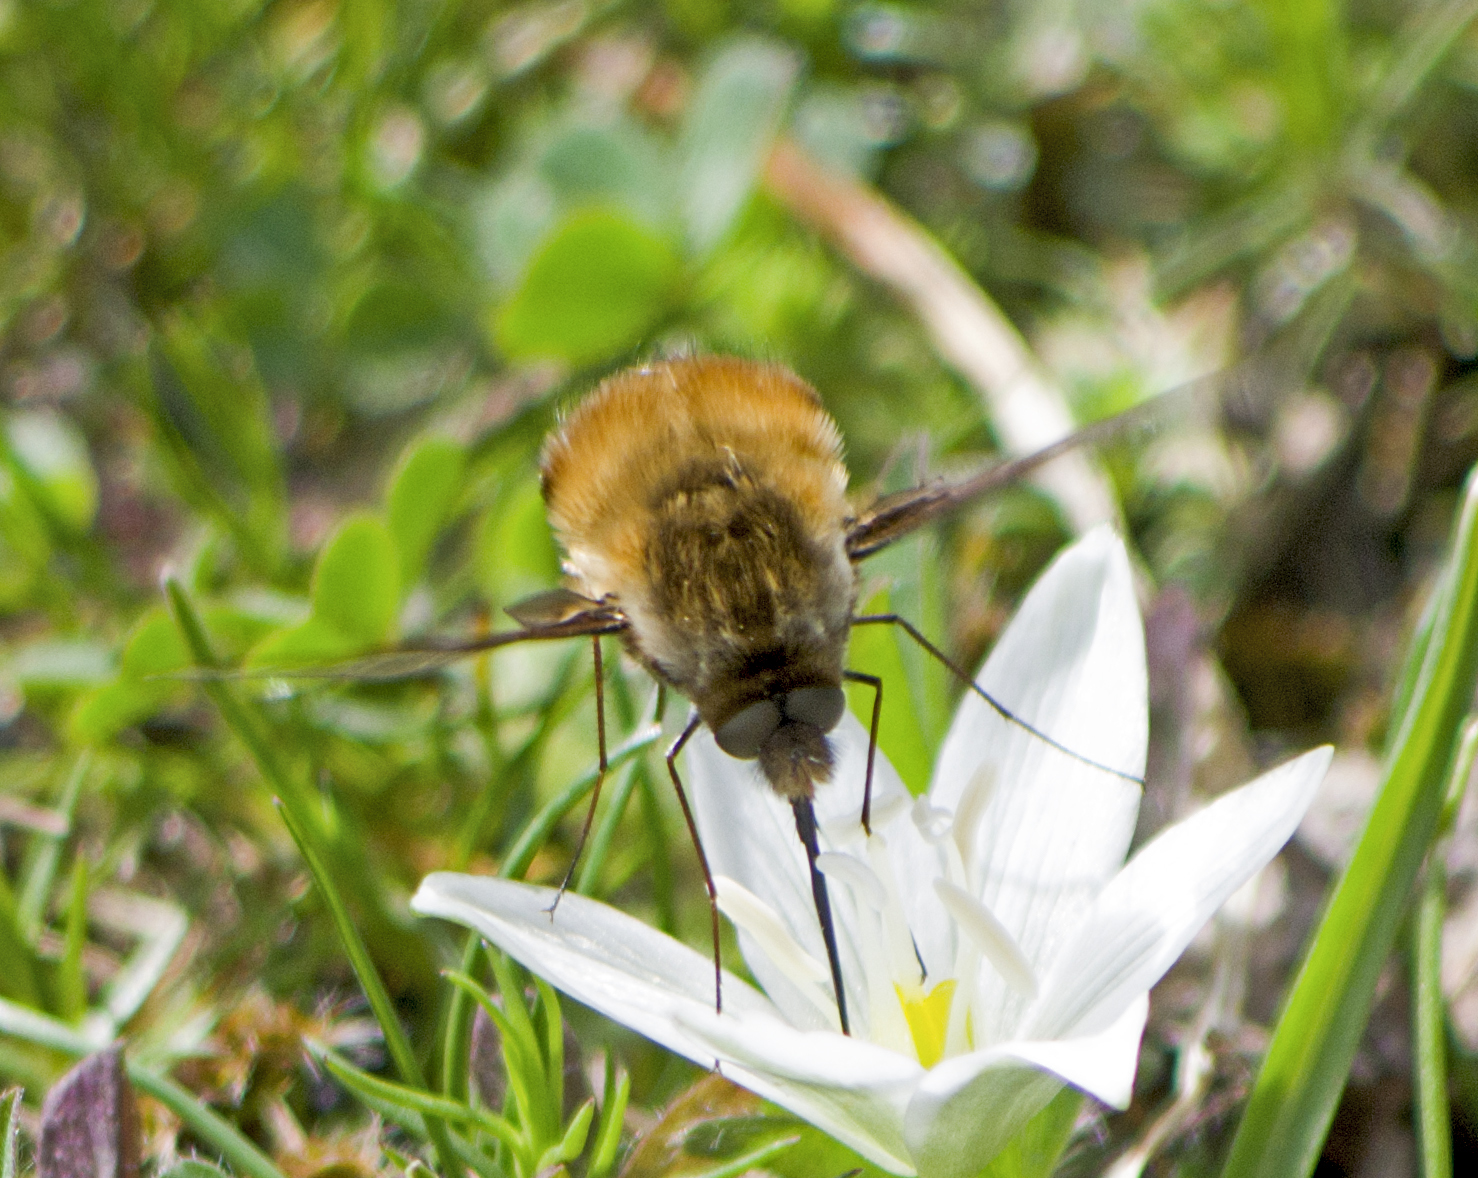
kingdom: Animalia
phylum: Arthropoda
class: Insecta
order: Diptera
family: Bombyliidae
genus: Bombylius
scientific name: Bombylius major
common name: Bee fly
